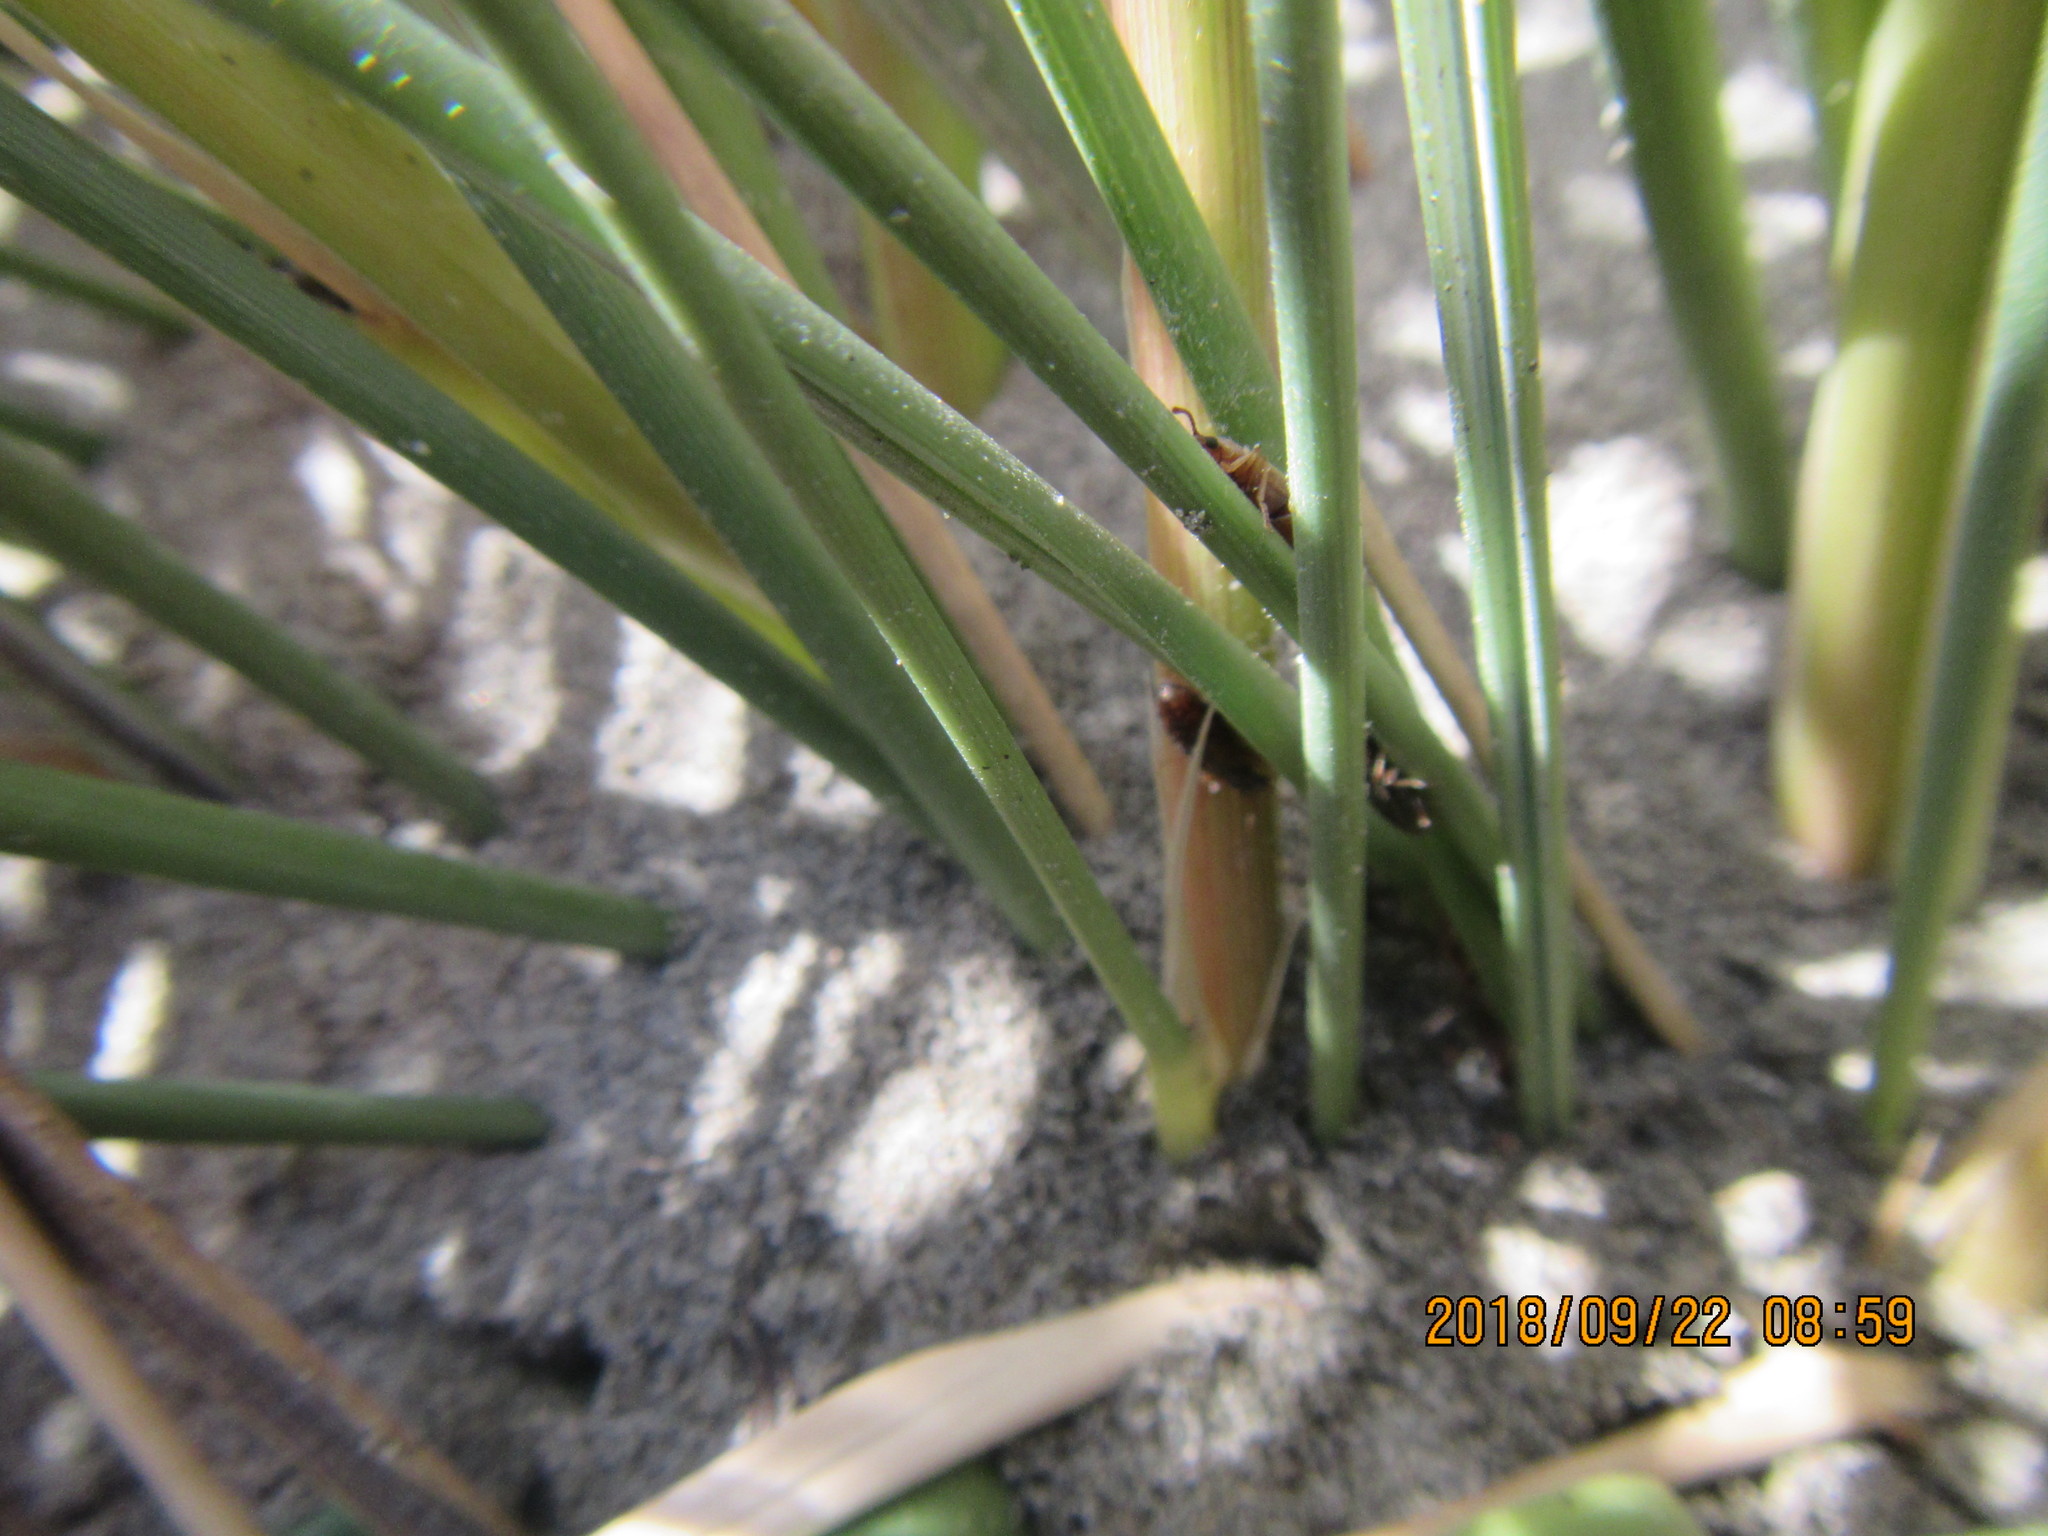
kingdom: Animalia
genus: Lagrioda
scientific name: Lagrioda brounii
